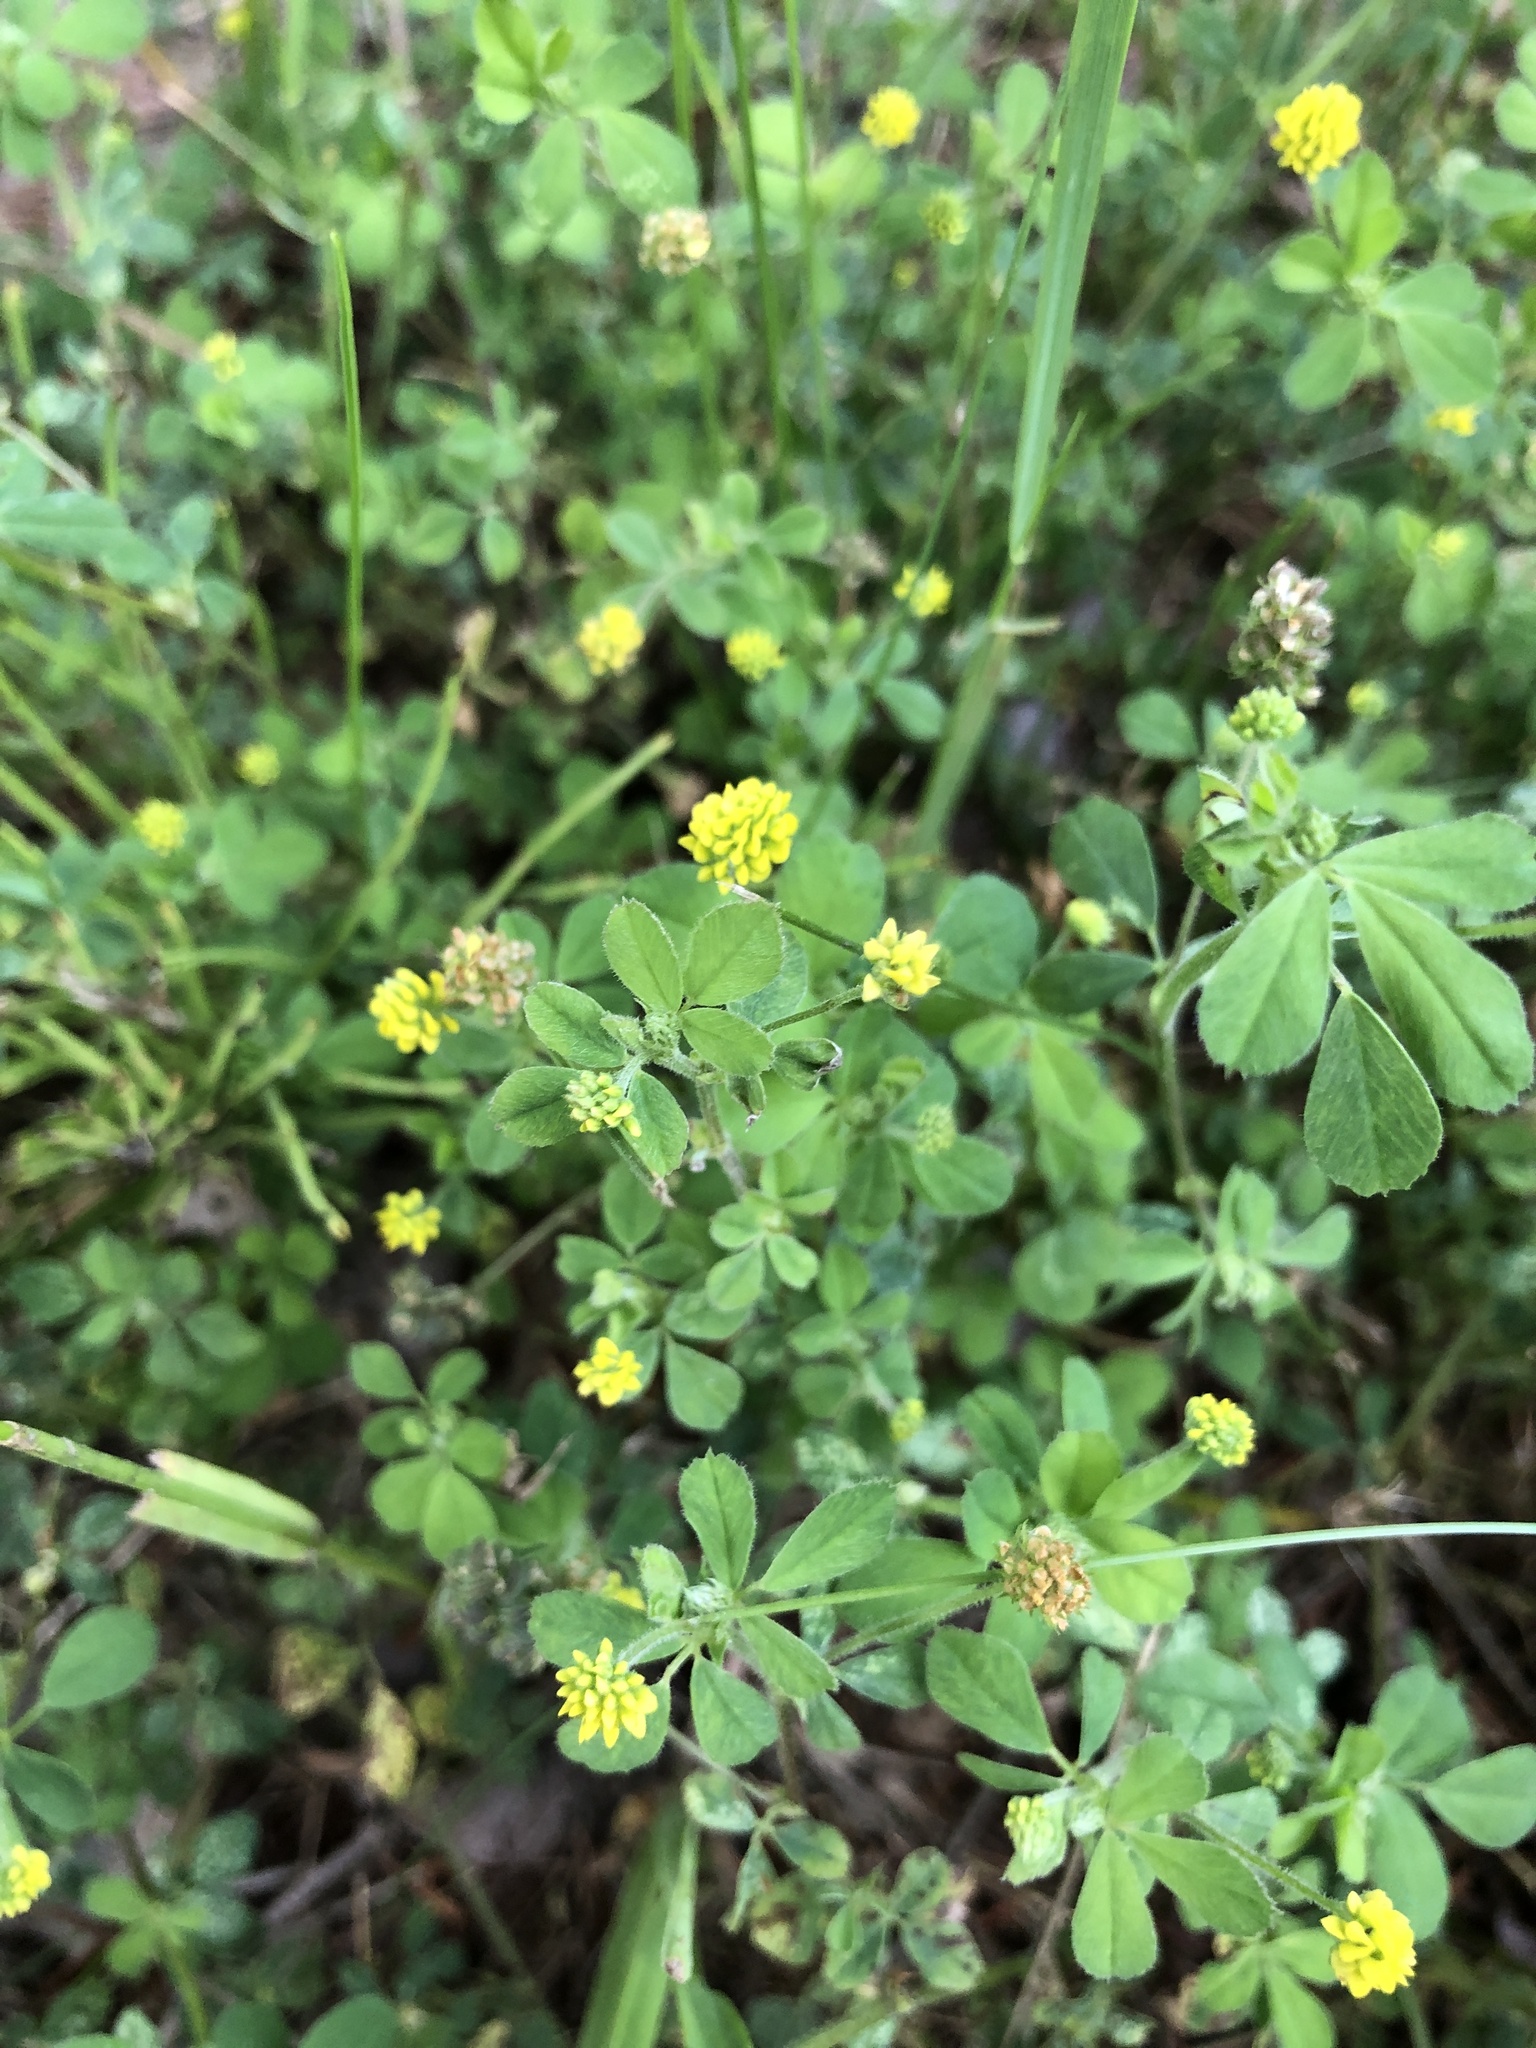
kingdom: Plantae
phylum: Tracheophyta
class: Magnoliopsida
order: Fabales
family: Fabaceae
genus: Medicago
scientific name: Medicago lupulina
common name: Black medick
